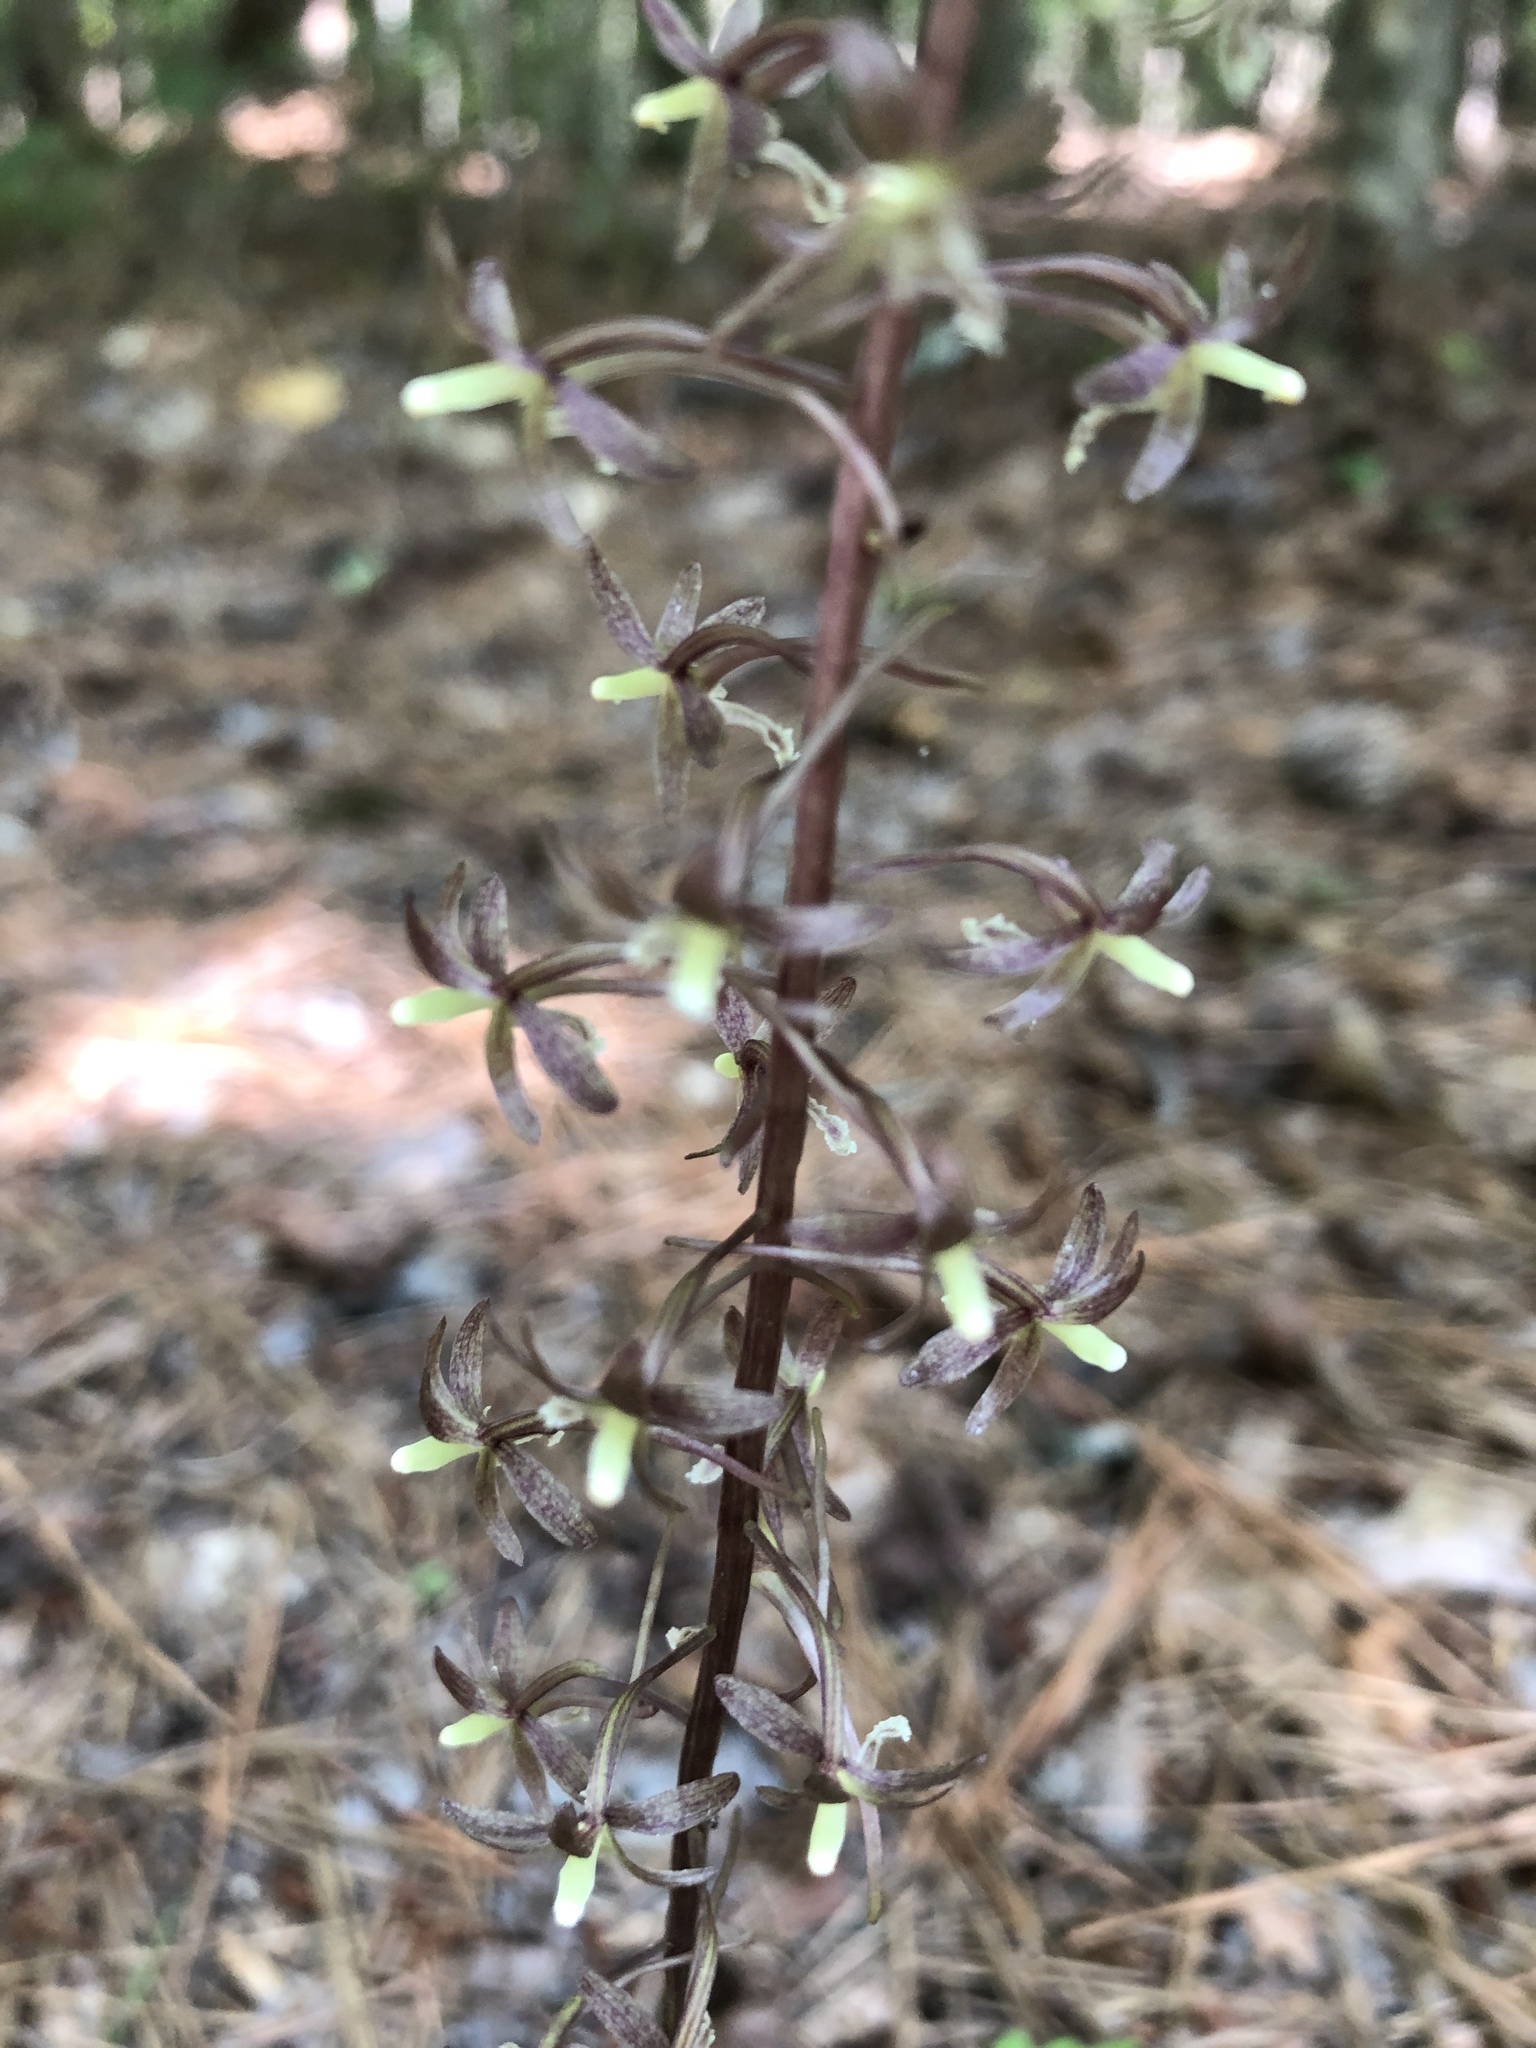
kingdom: Plantae
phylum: Tracheophyta
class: Liliopsida
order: Asparagales
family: Orchidaceae
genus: Tipularia
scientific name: Tipularia discolor
